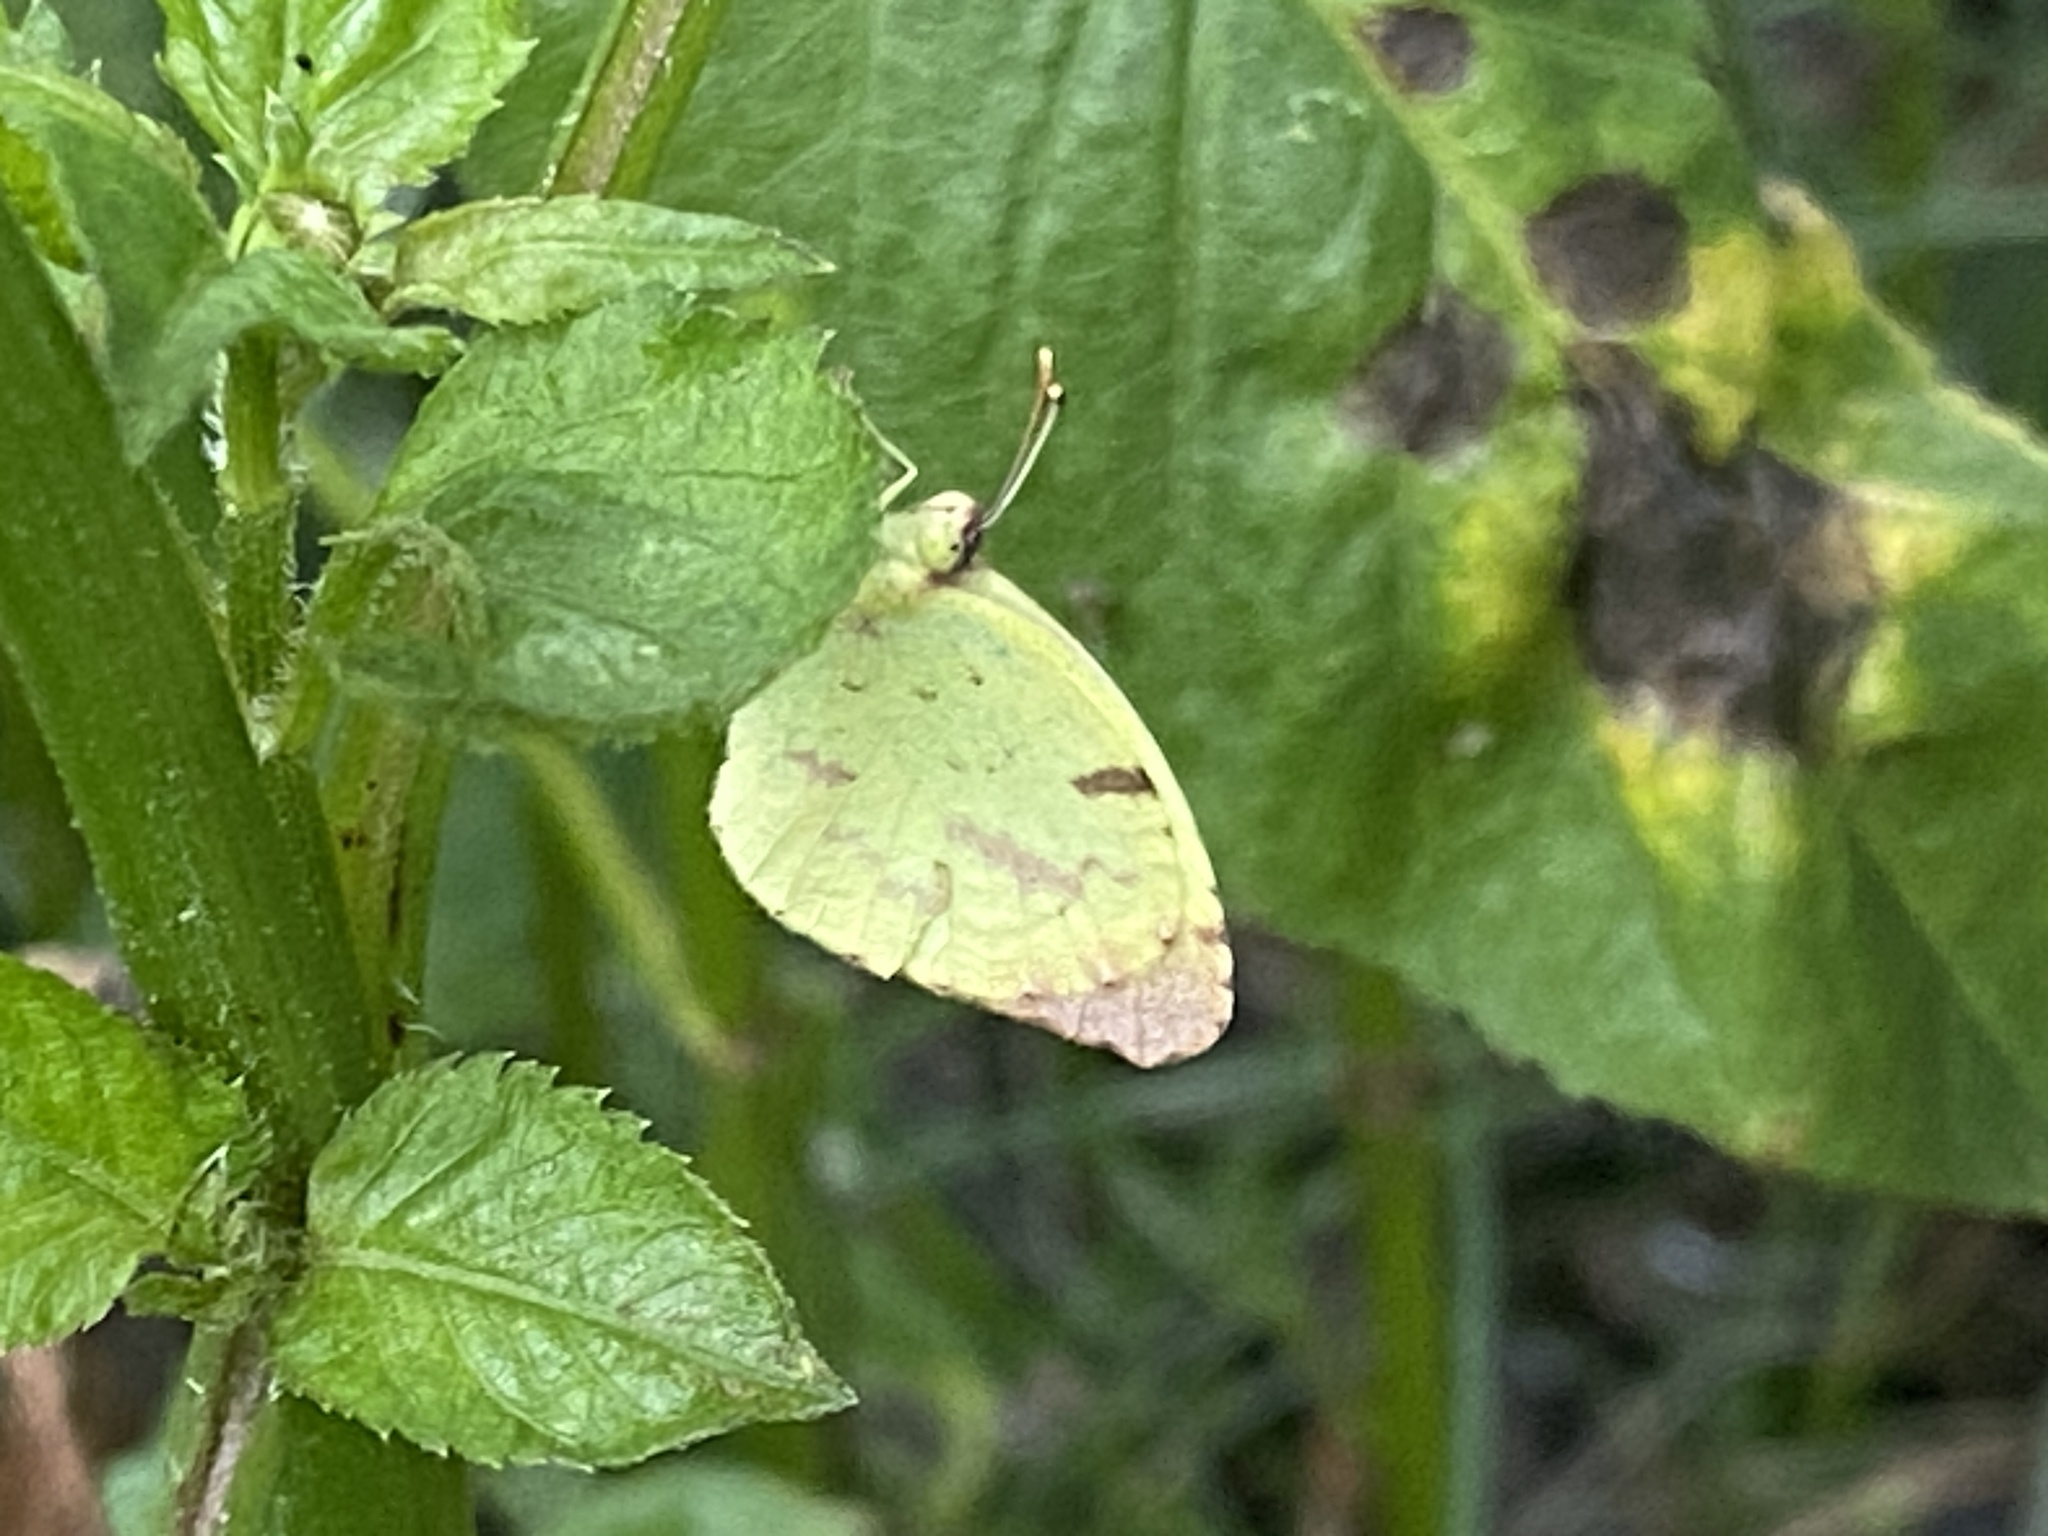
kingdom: Animalia
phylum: Arthropoda
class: Insecta
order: Lepidoptera
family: Pieridae
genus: Teriocolias
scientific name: Teriocolias
